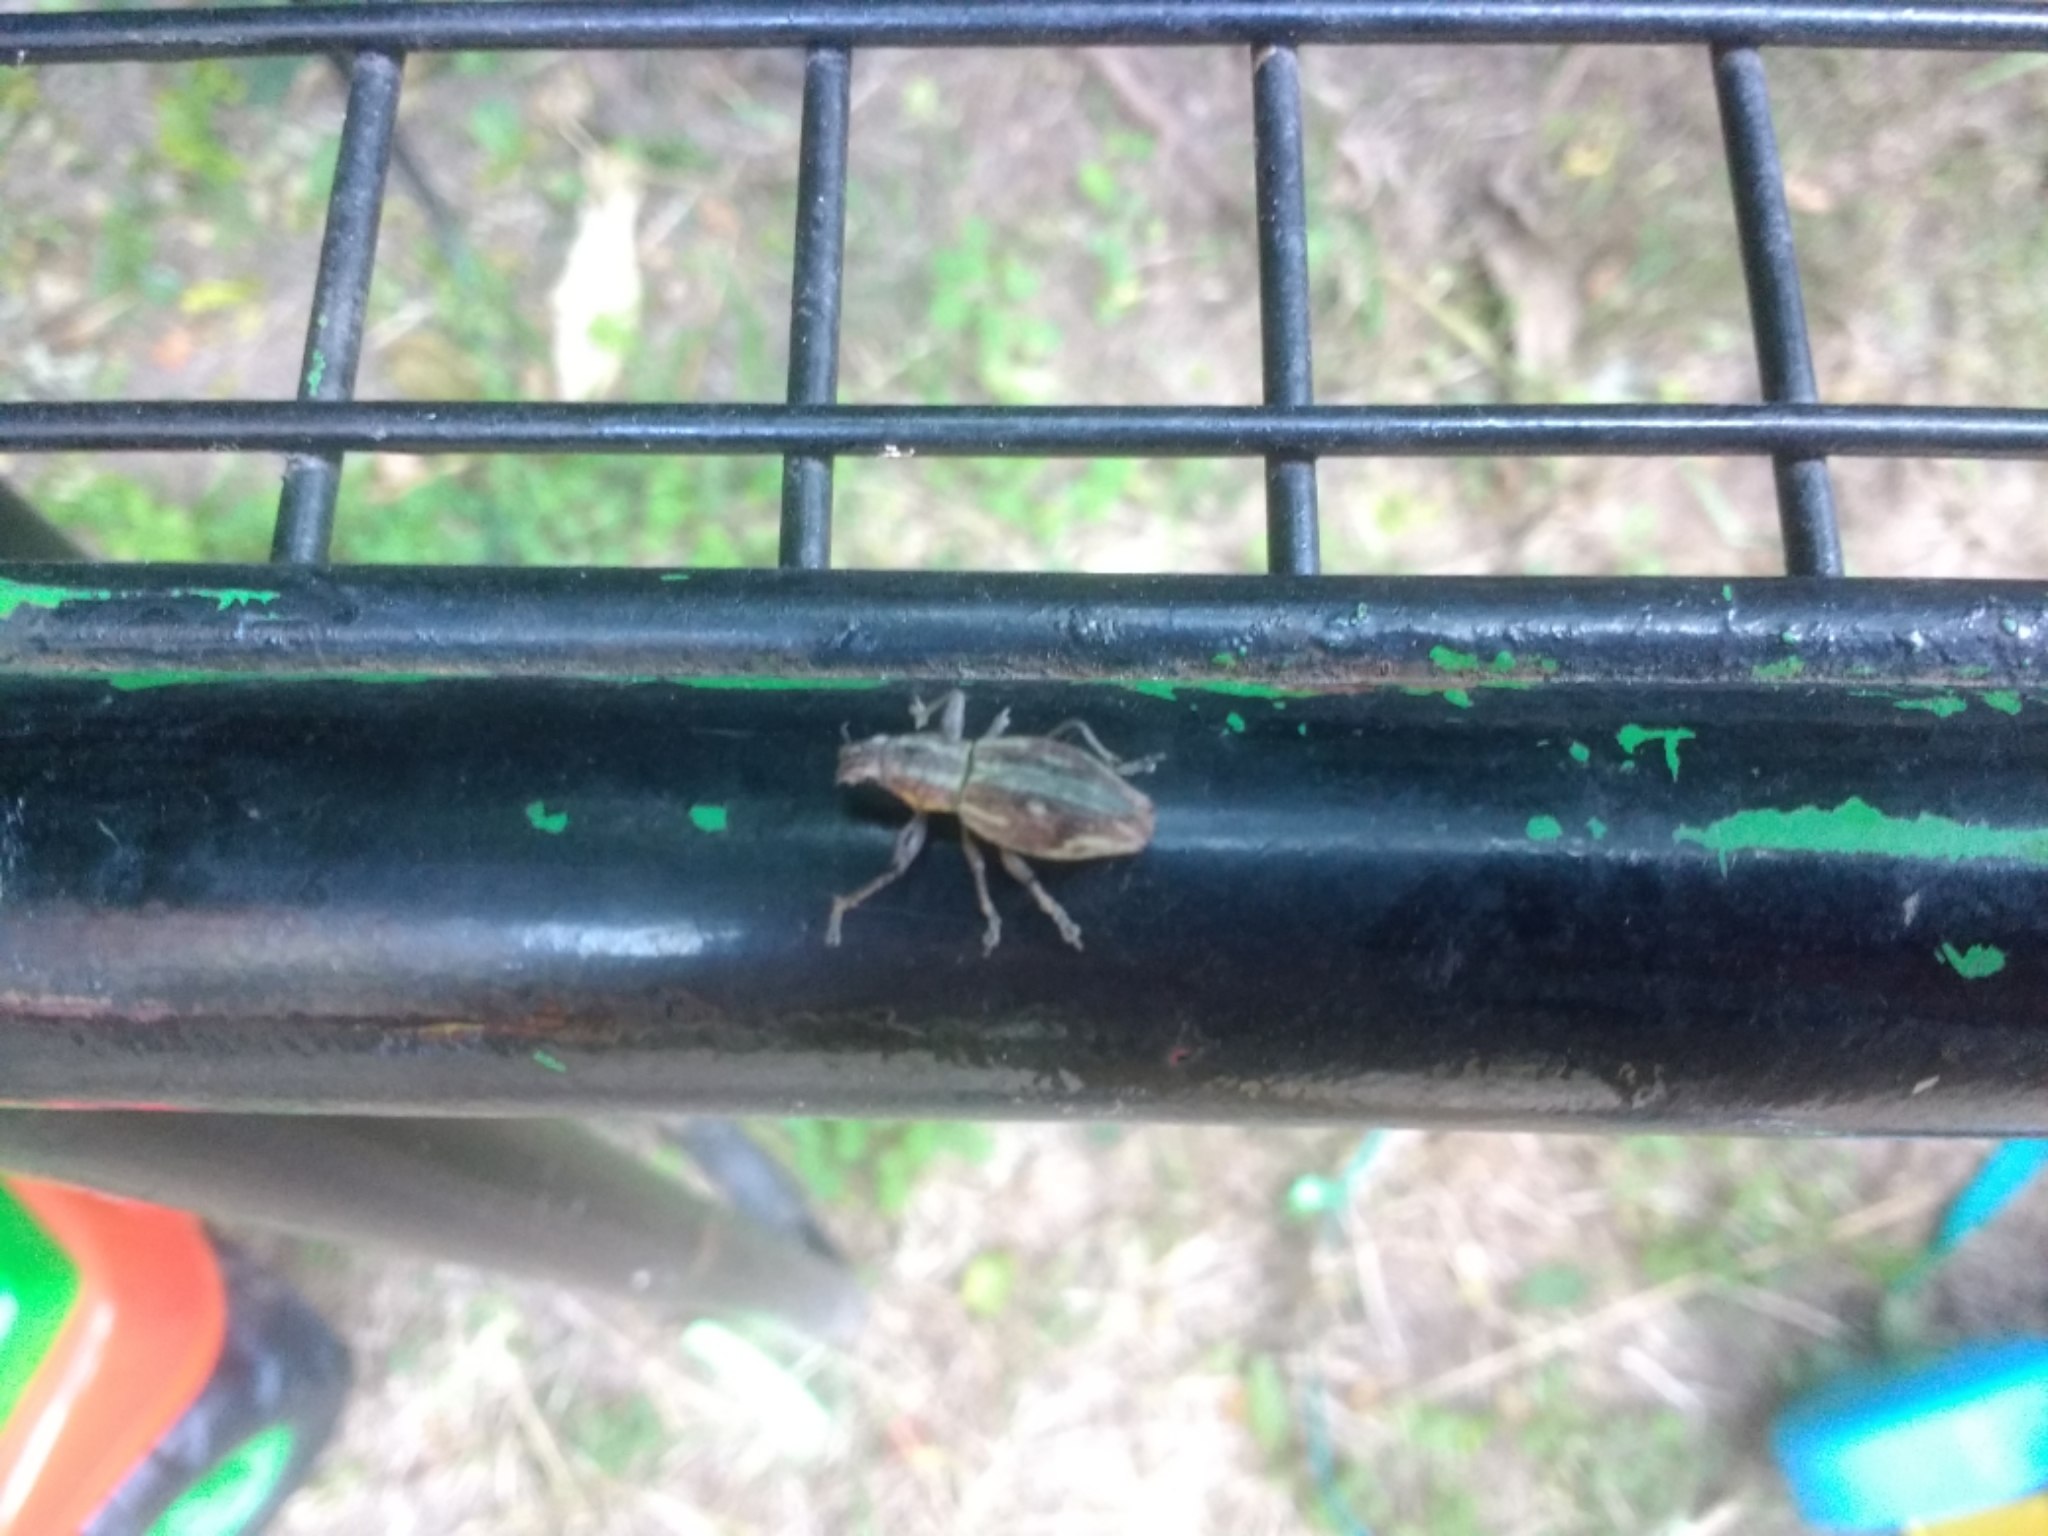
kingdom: Animalia
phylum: Arthropoda
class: Insecta
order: Coleoptera
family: Curculionidae
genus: Naupactus
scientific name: Naupactus xanthographus
